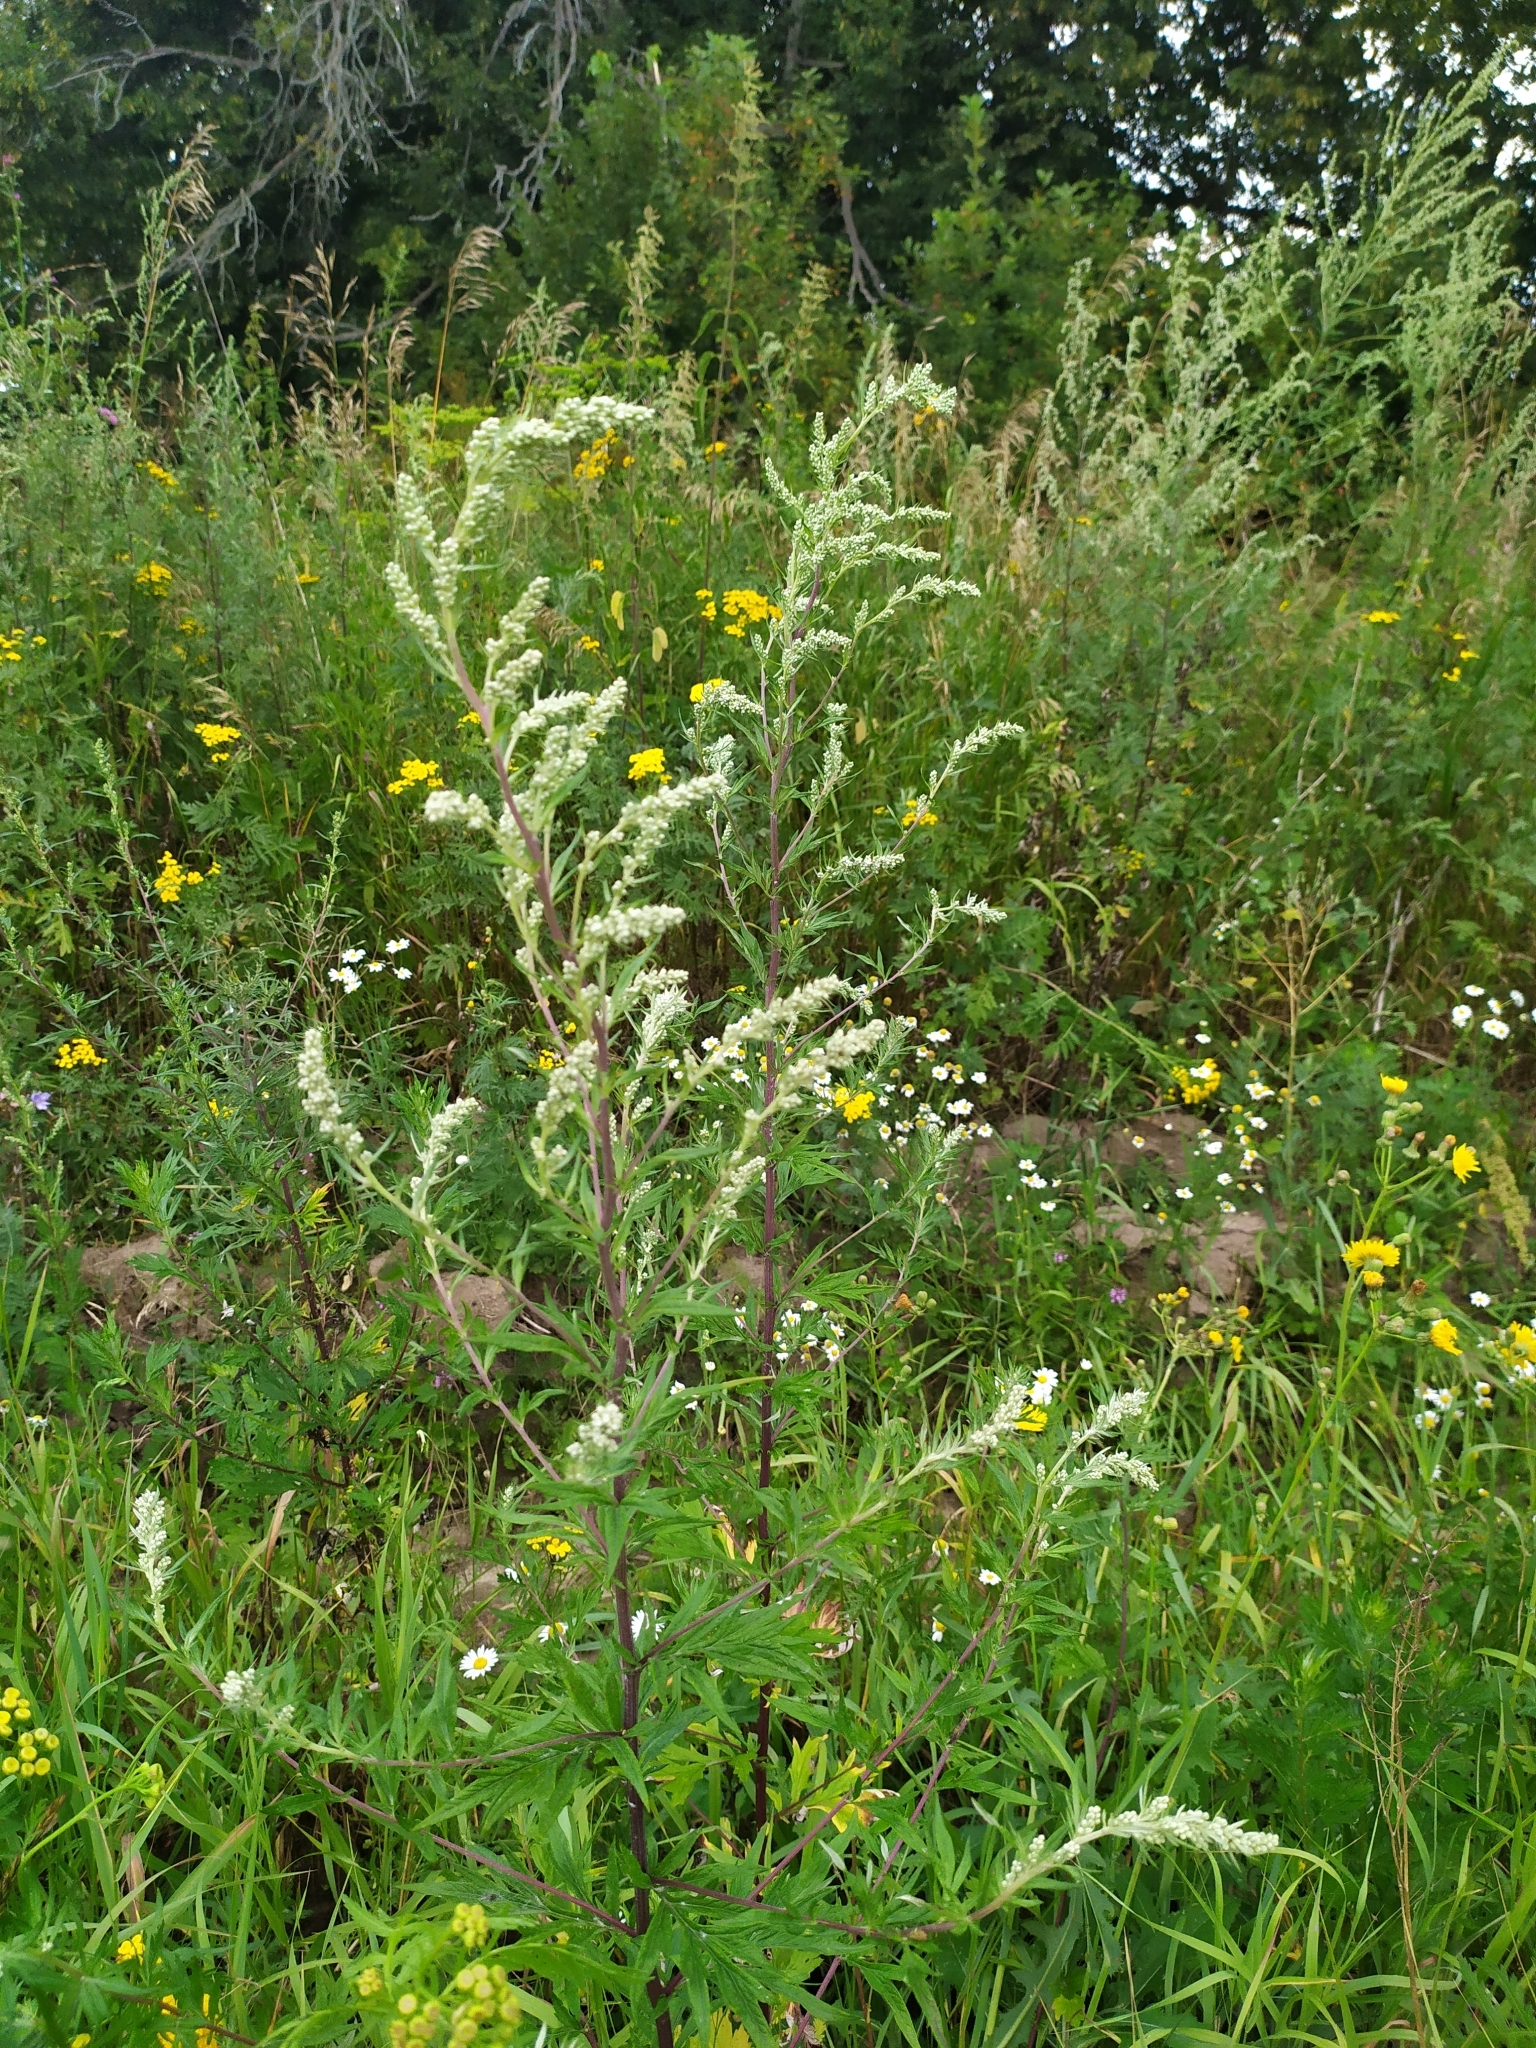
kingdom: Plantae
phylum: Tracheophyta
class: Magnoliopsida
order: Asterales
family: Asteraceae
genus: Artemisia
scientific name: Artemisia vulgaris
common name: Mugwort
